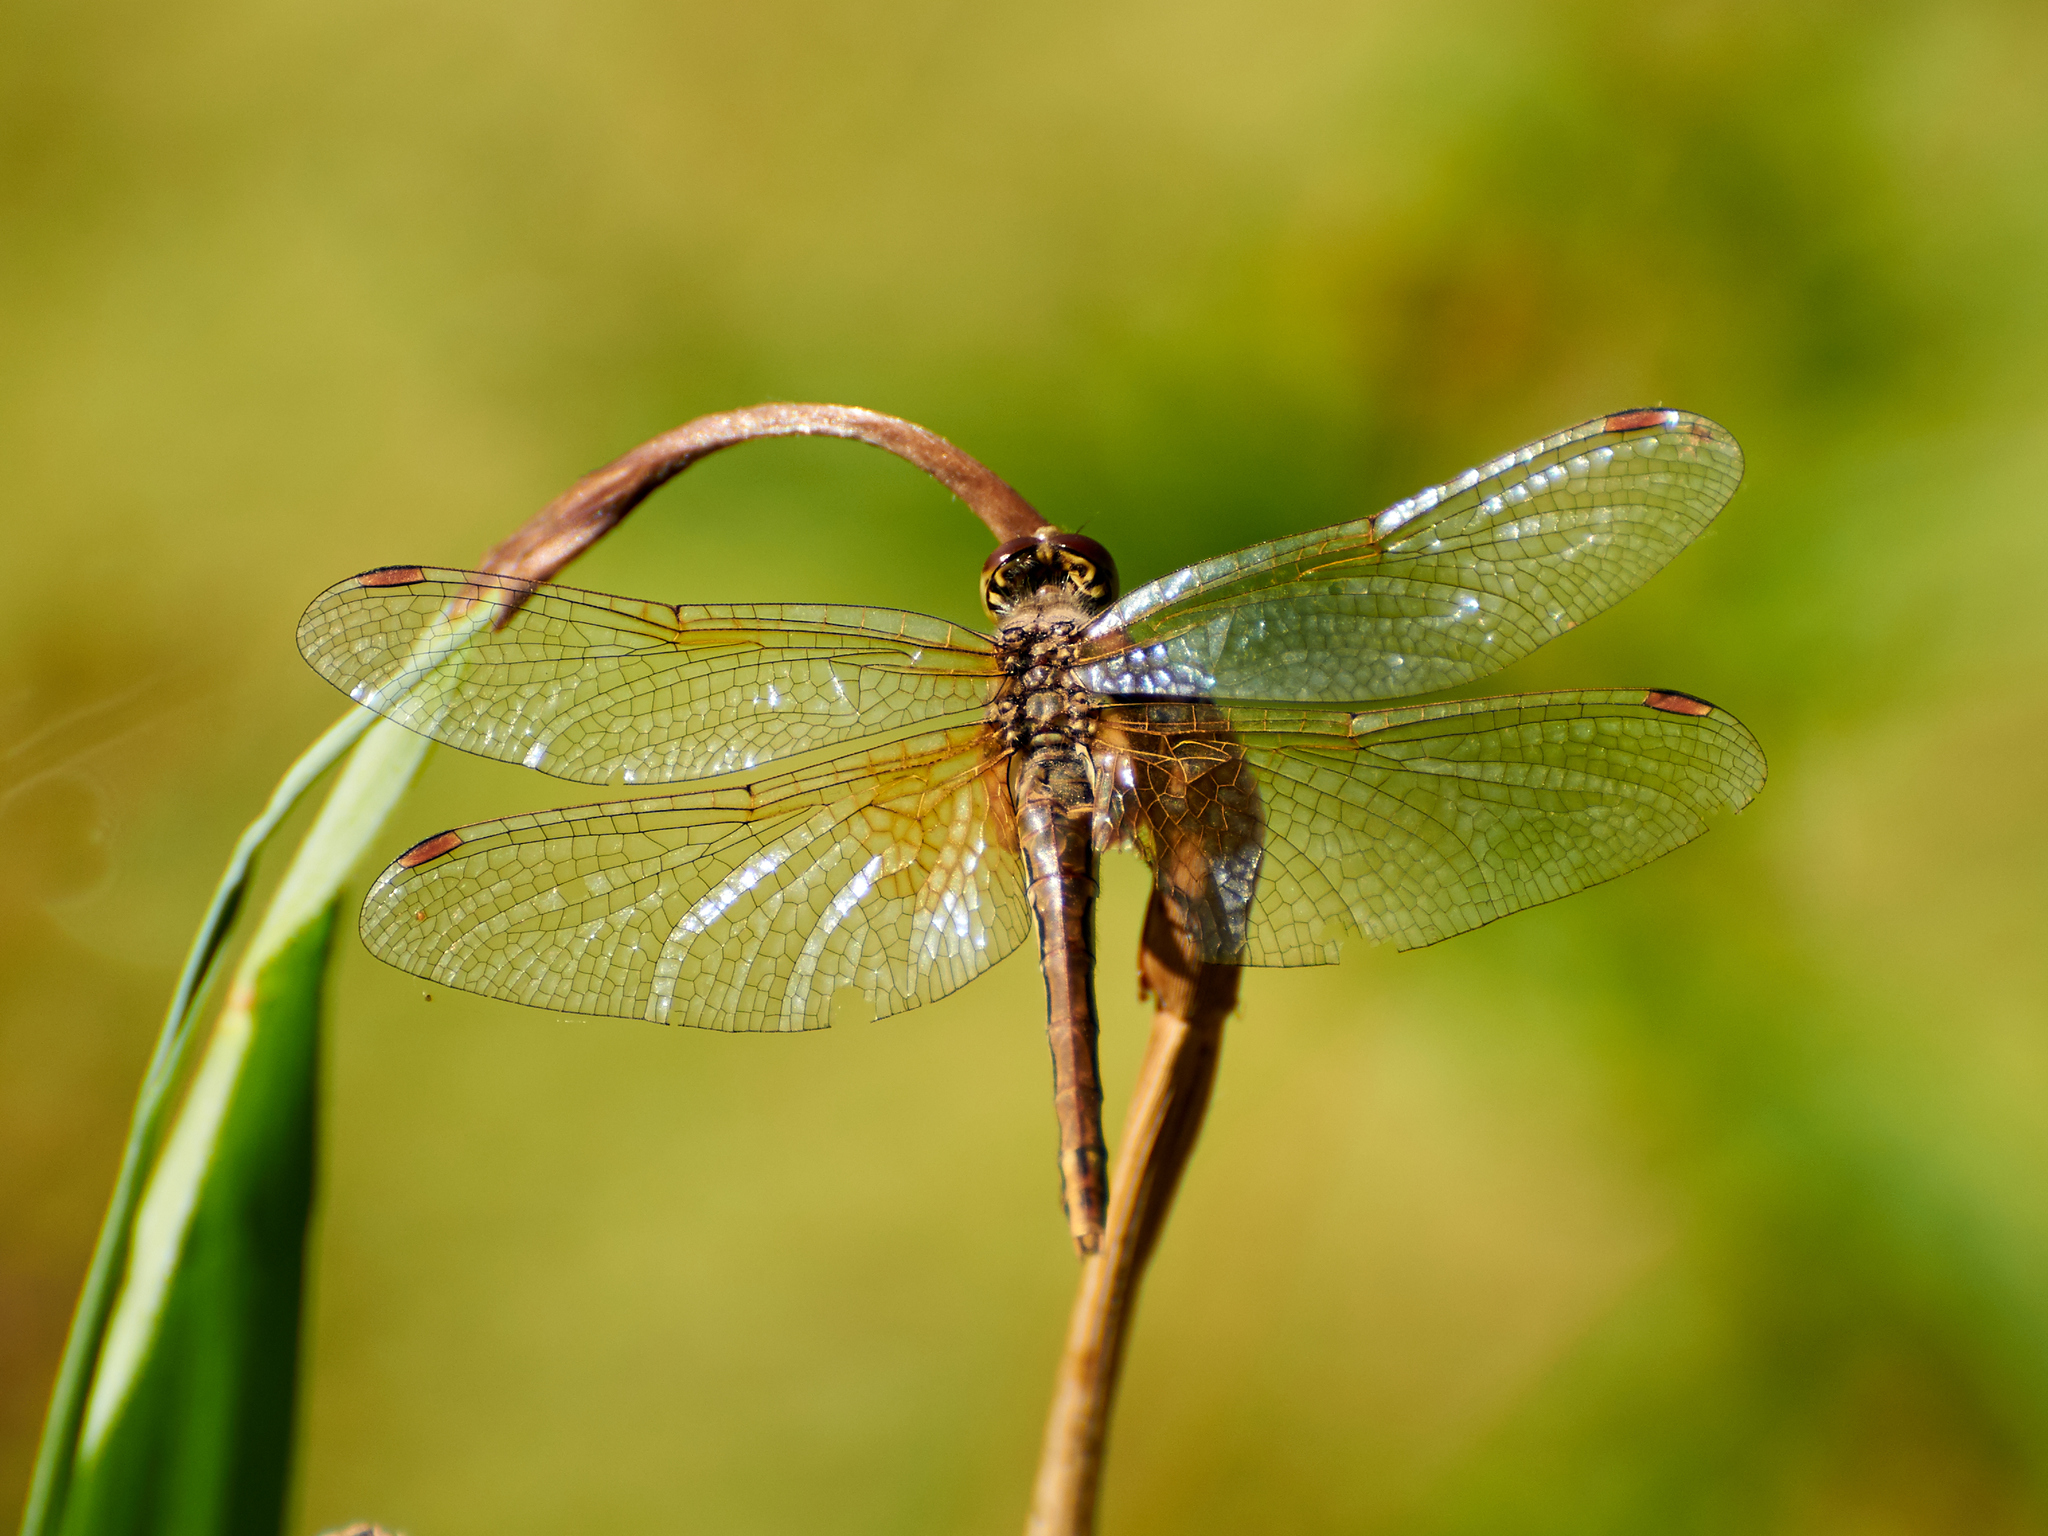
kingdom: Animalia
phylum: Arthropoda
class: Insecta
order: Odonata
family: Libellulidae
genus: Sympetrum
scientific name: Sympetrum flaveolum
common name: Yellow-winged darter
